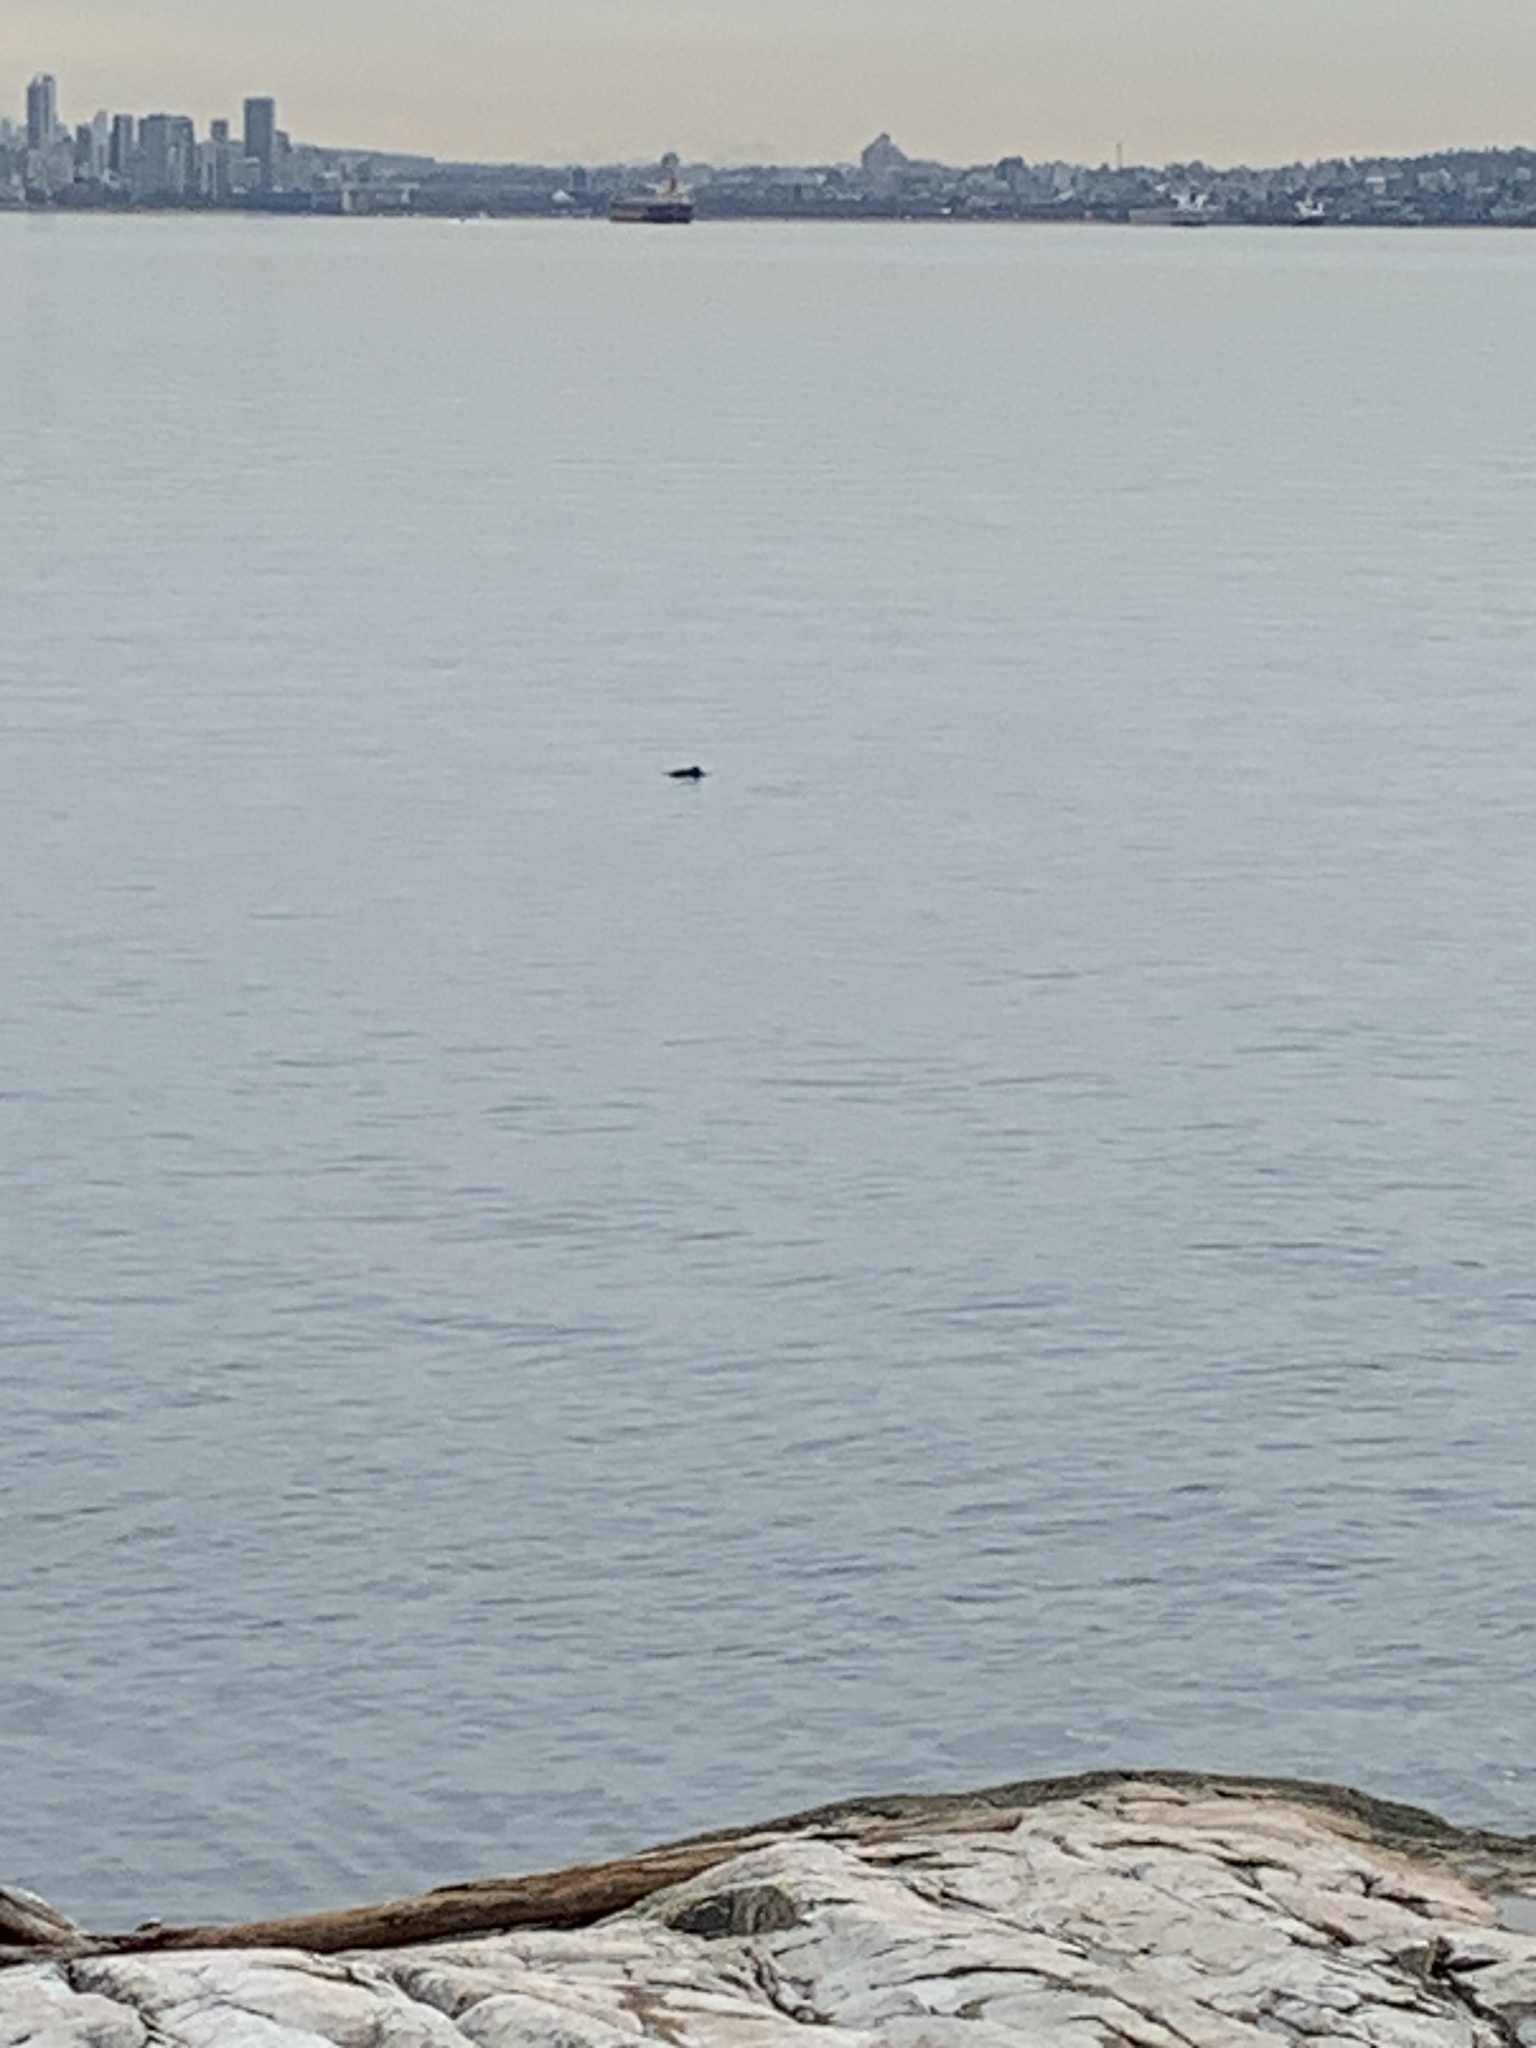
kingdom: Animalia
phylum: Chordata
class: Mammalia
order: Cetacea
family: Phocoenidae
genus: Phocoena
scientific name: Phocoena phocoena
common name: Harbor porpoise
